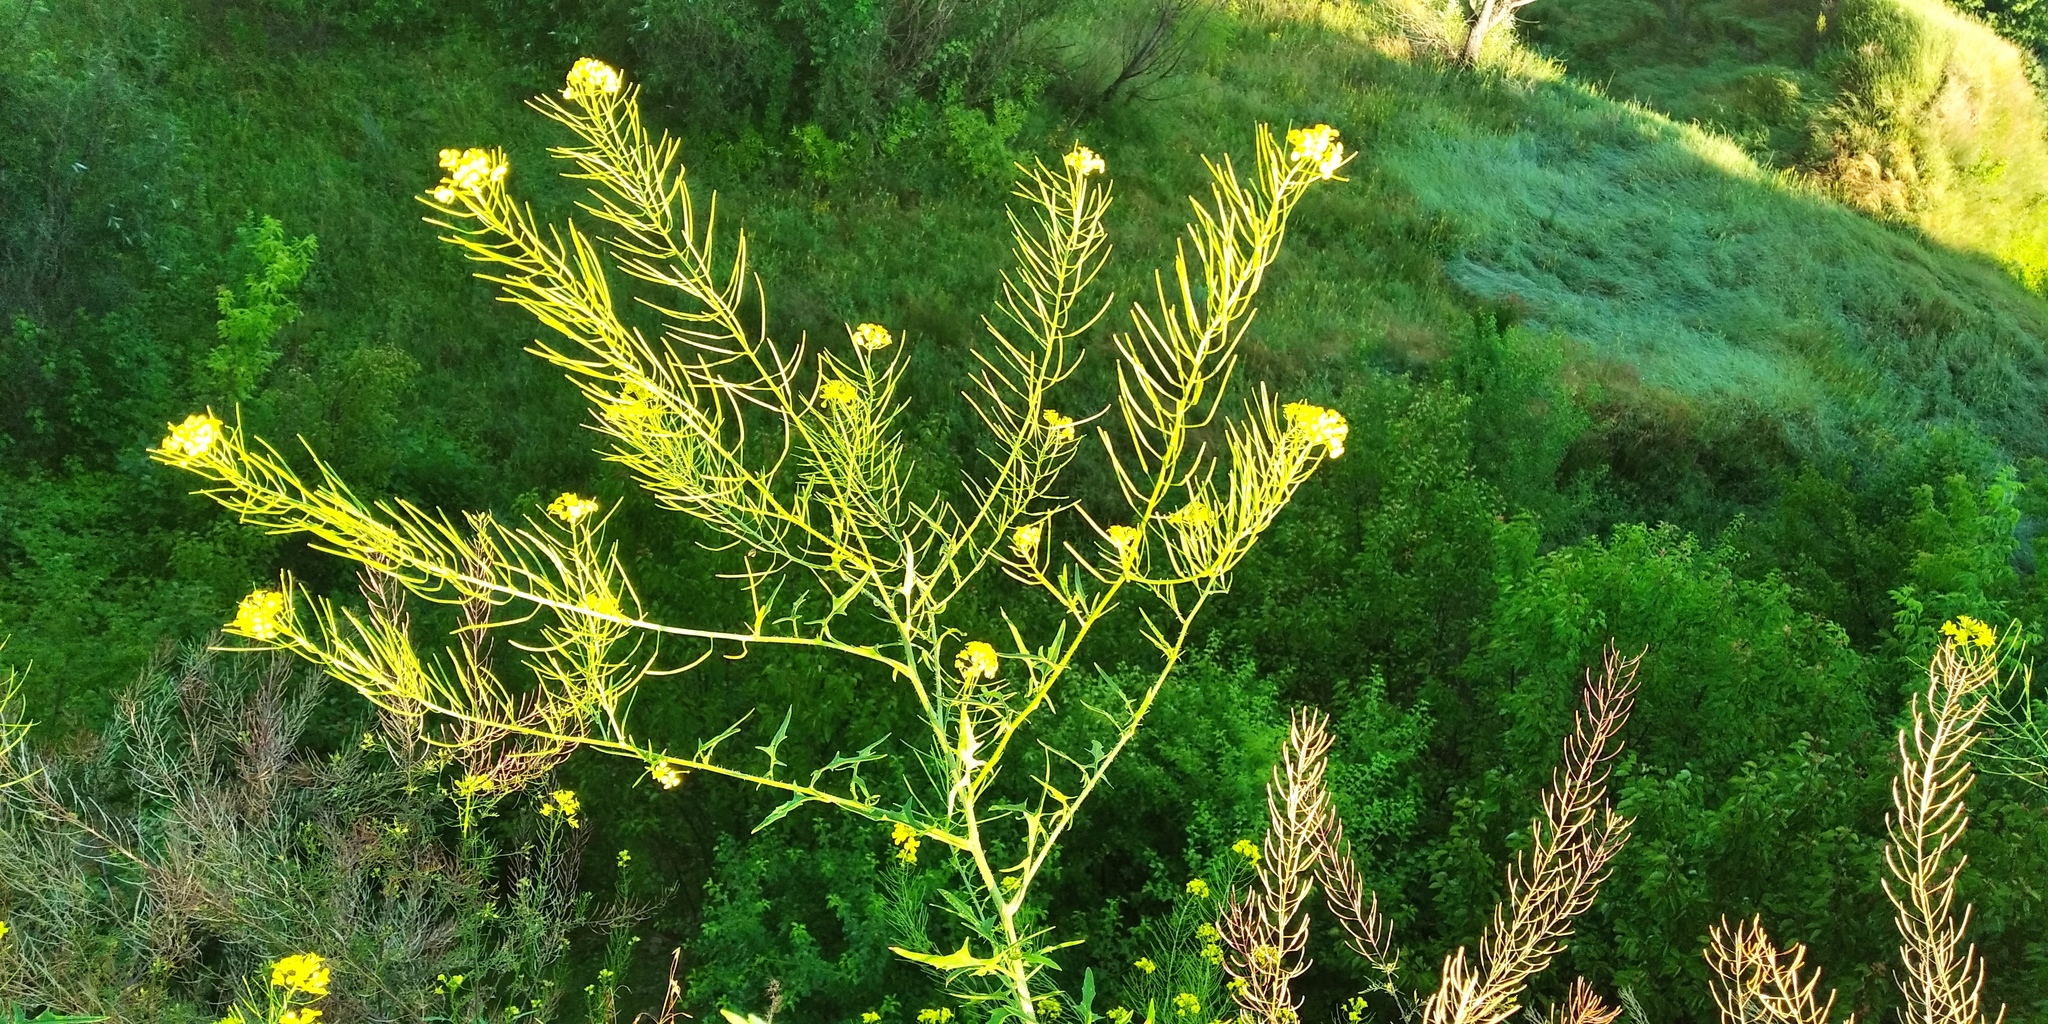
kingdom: Plantae
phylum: Tracheophyta
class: Magnoliopsida
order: Brassicales
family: Brassicaceae
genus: Sisymbrium
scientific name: Sisymbrium loeselii
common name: False london-rocket
